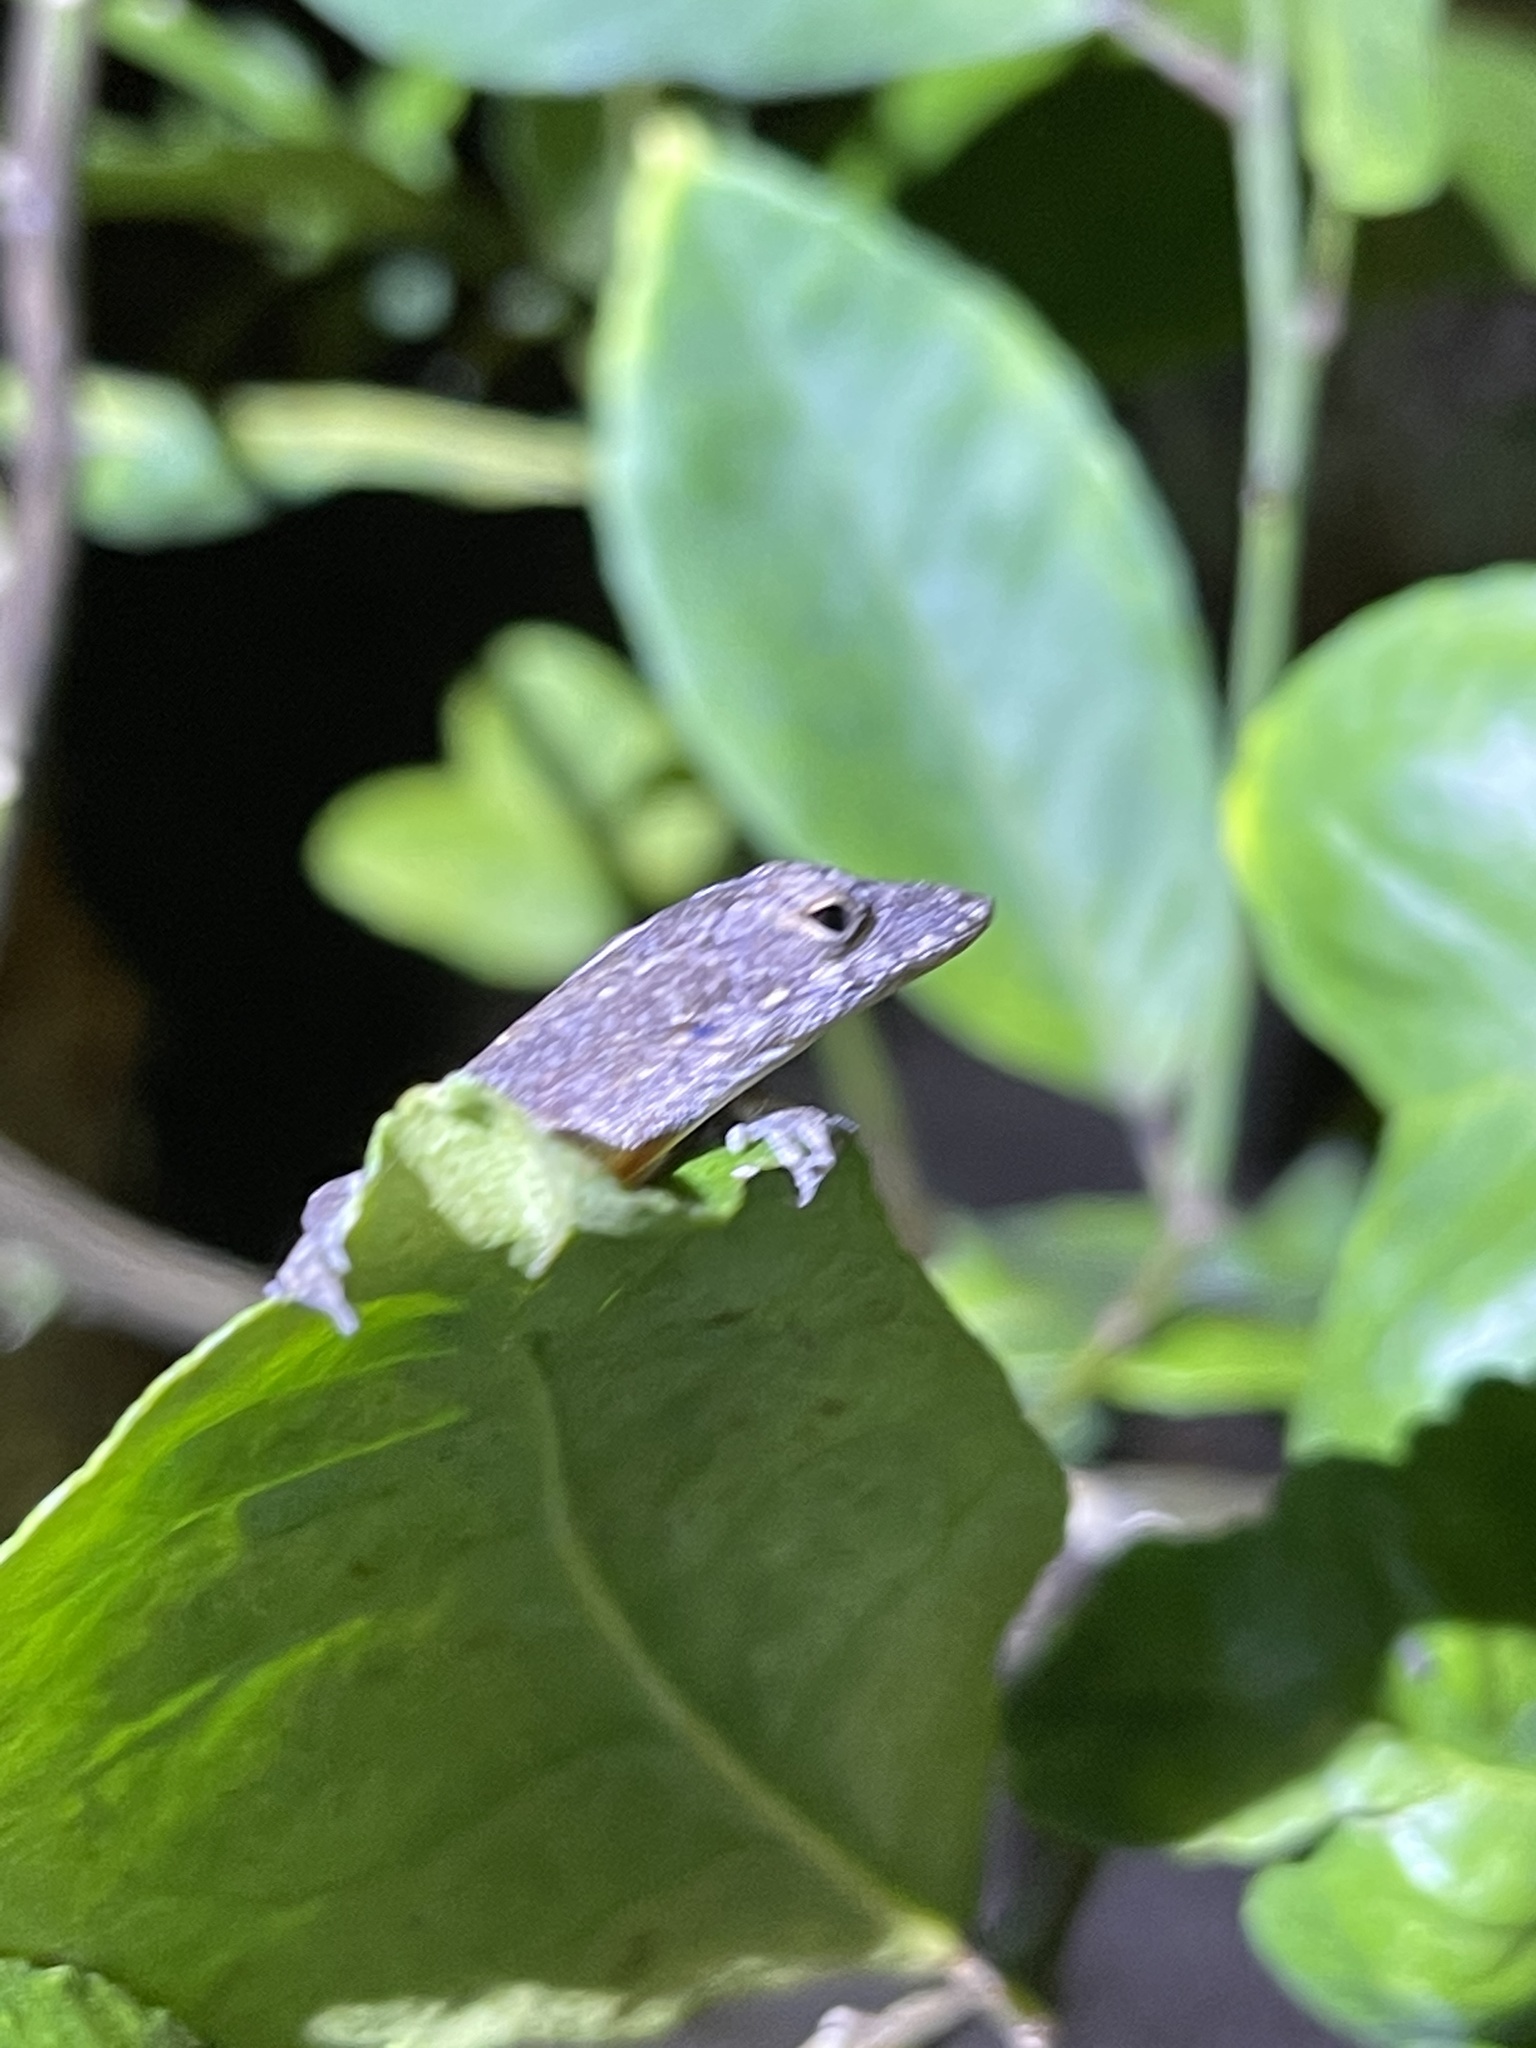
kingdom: Animalia
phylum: Chordata
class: Squamata
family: Dactyloidae
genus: Anolis
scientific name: Anolis sagrei
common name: Brown anole
